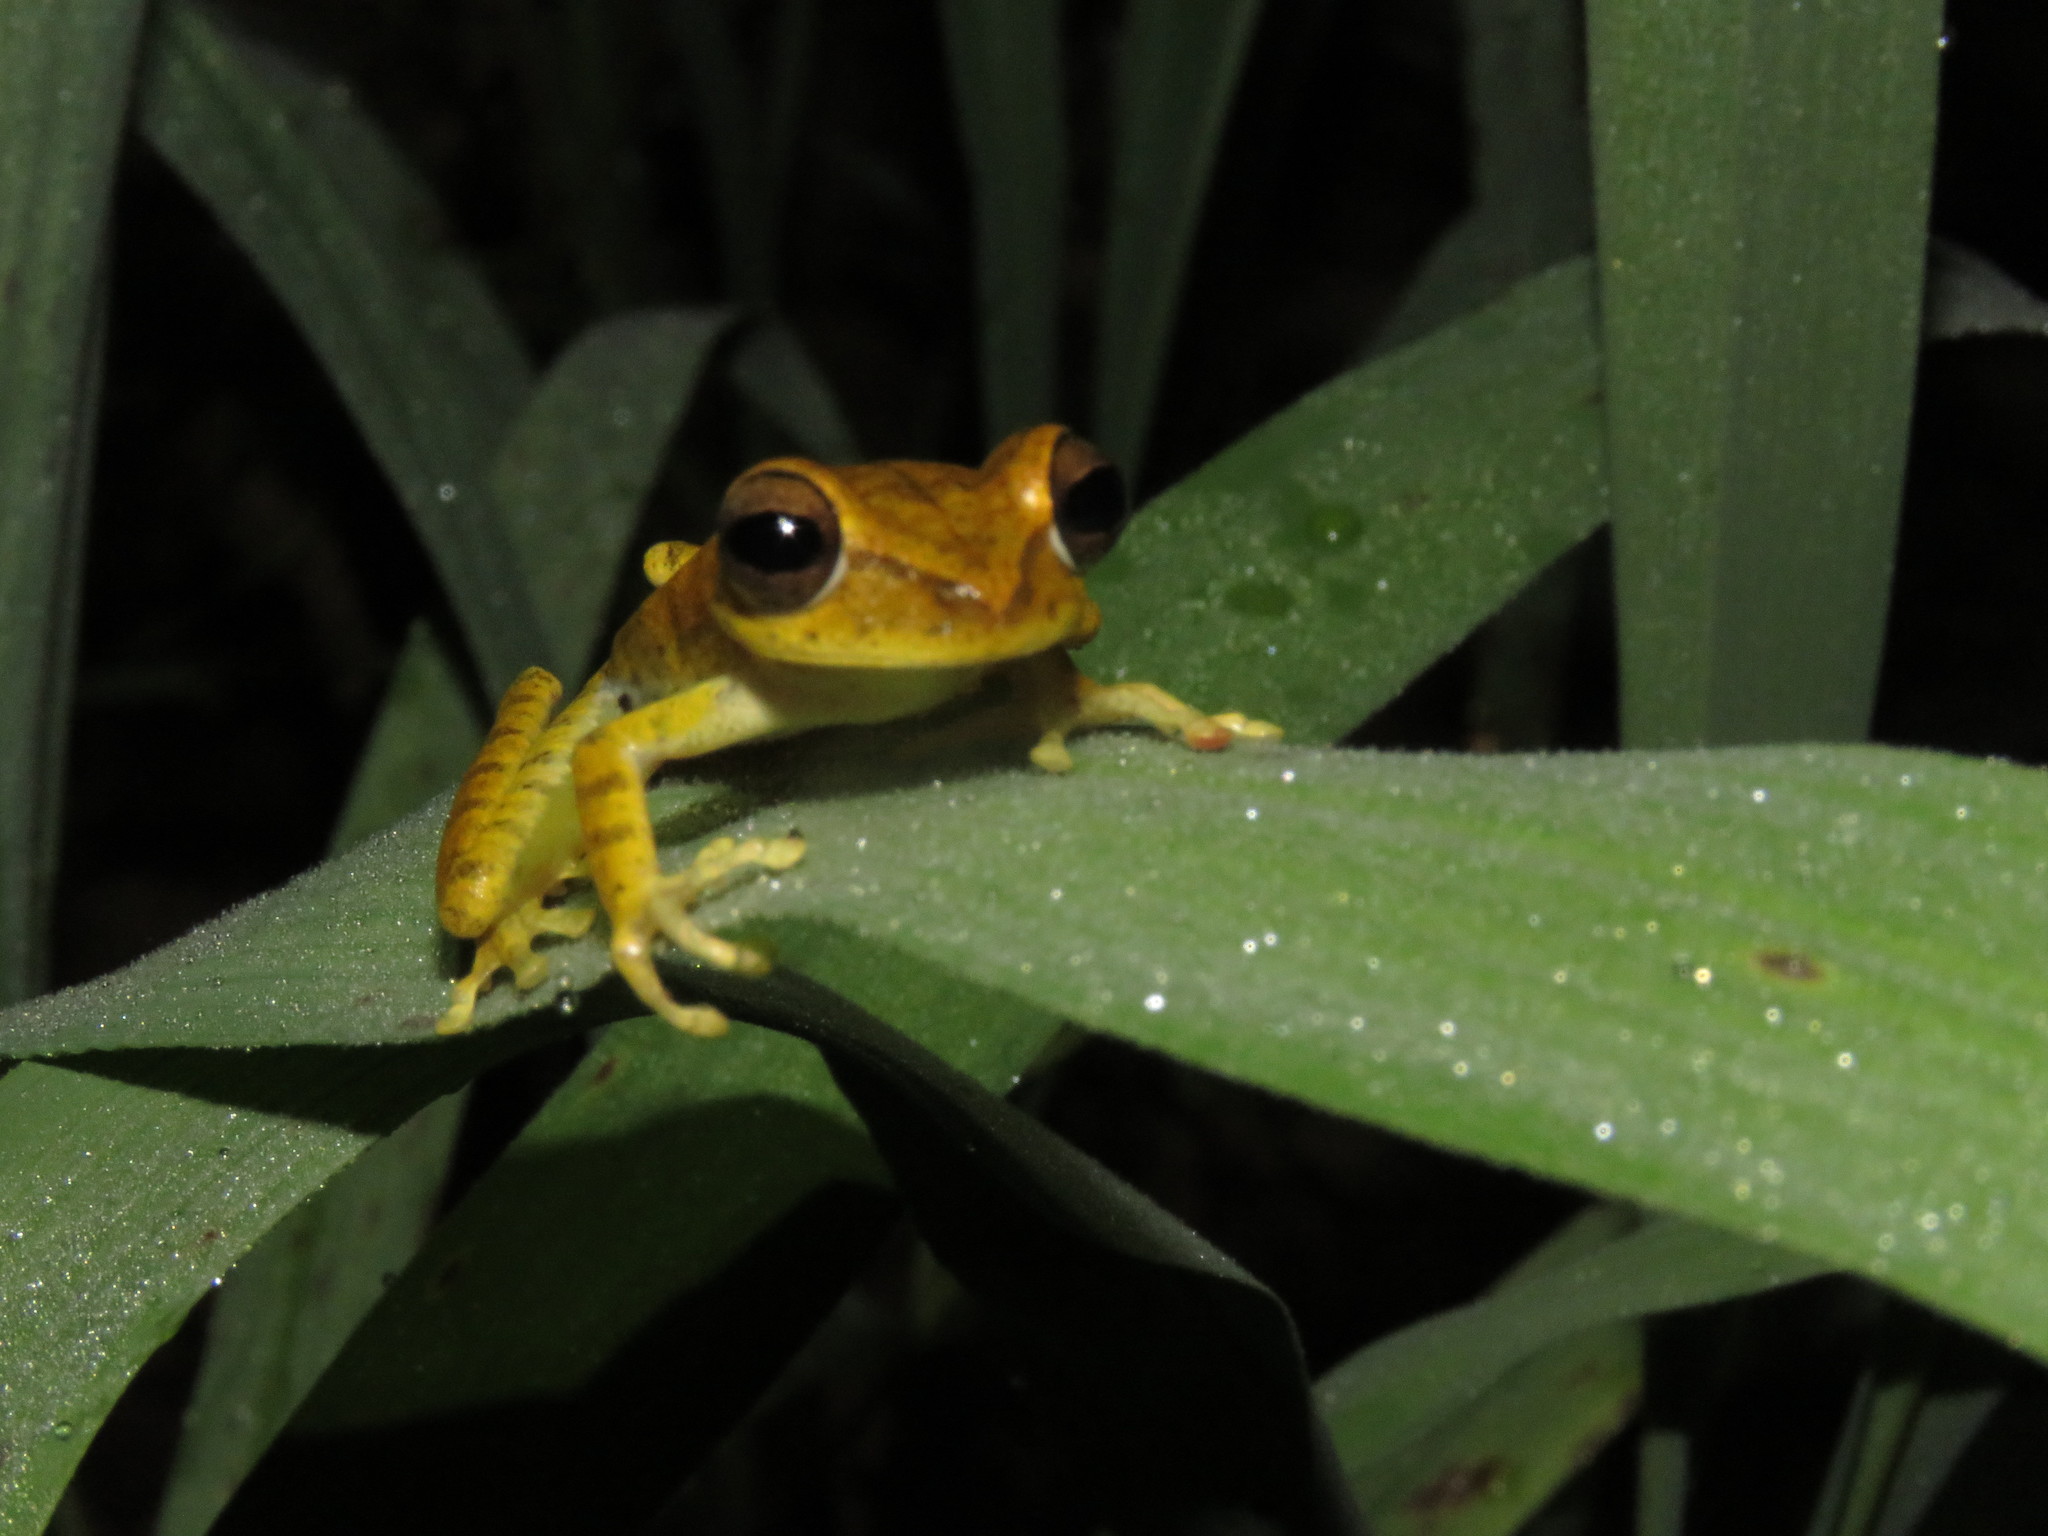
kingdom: Animalia
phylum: Chordata
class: Amphibia
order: Anura
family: Hylidae
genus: Boana
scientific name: Boana steinbachi
